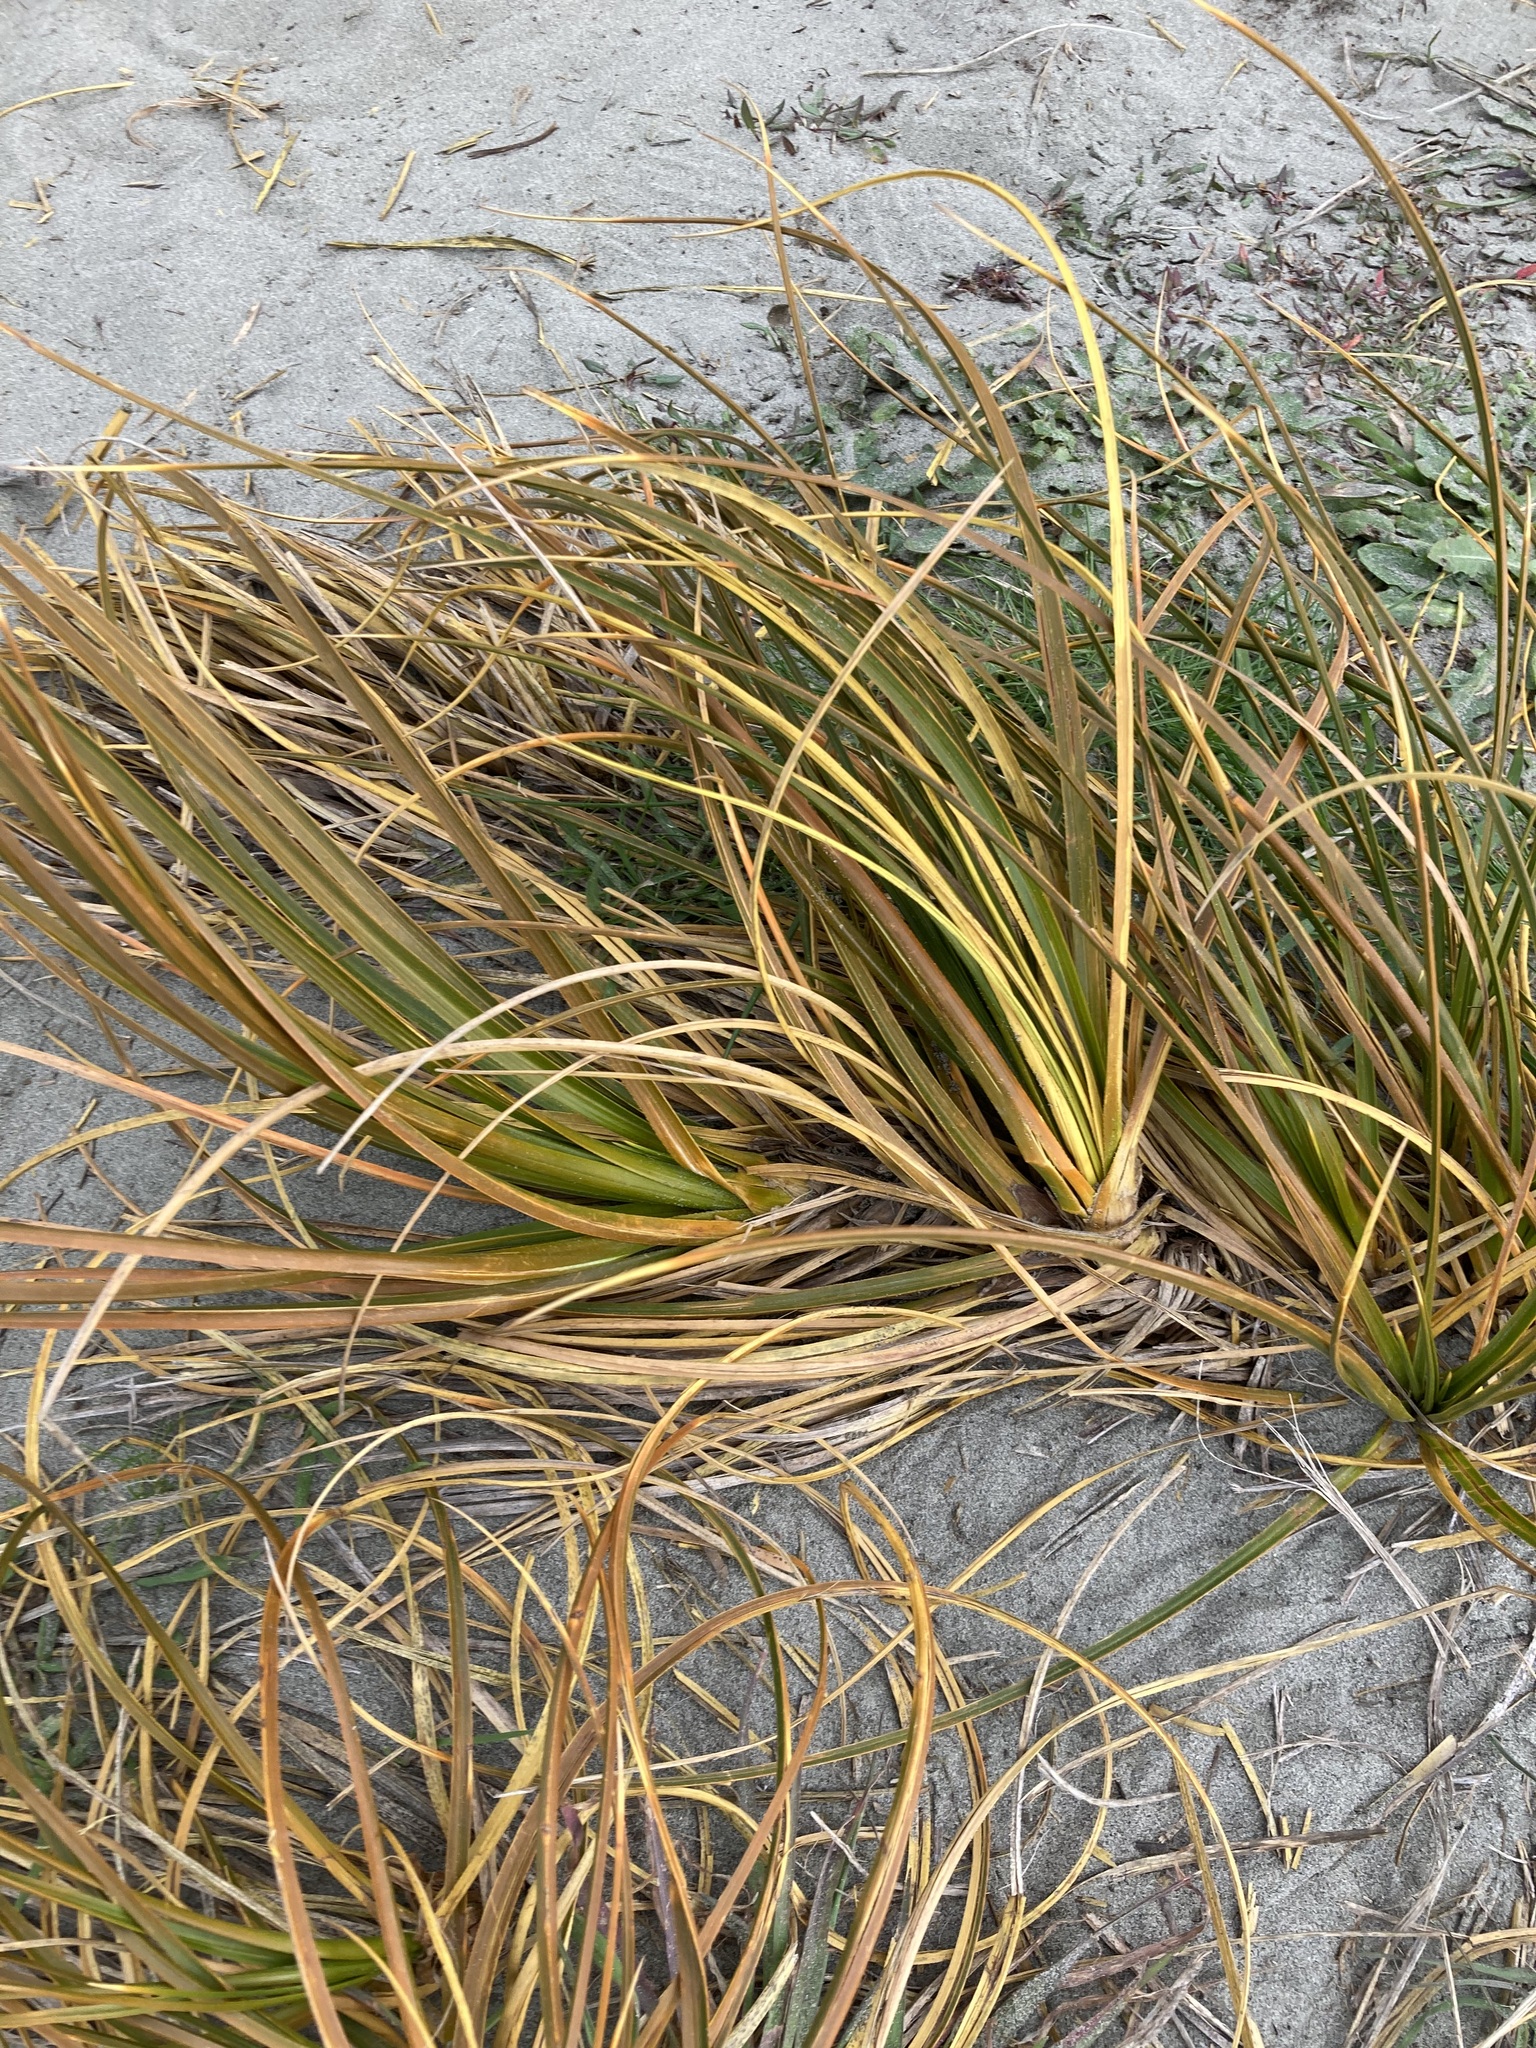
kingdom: Plantae
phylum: Tracheophyta
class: Liliopsida
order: Poales
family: Cyperaceae
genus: Ficinia
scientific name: Ficinia spiralis
